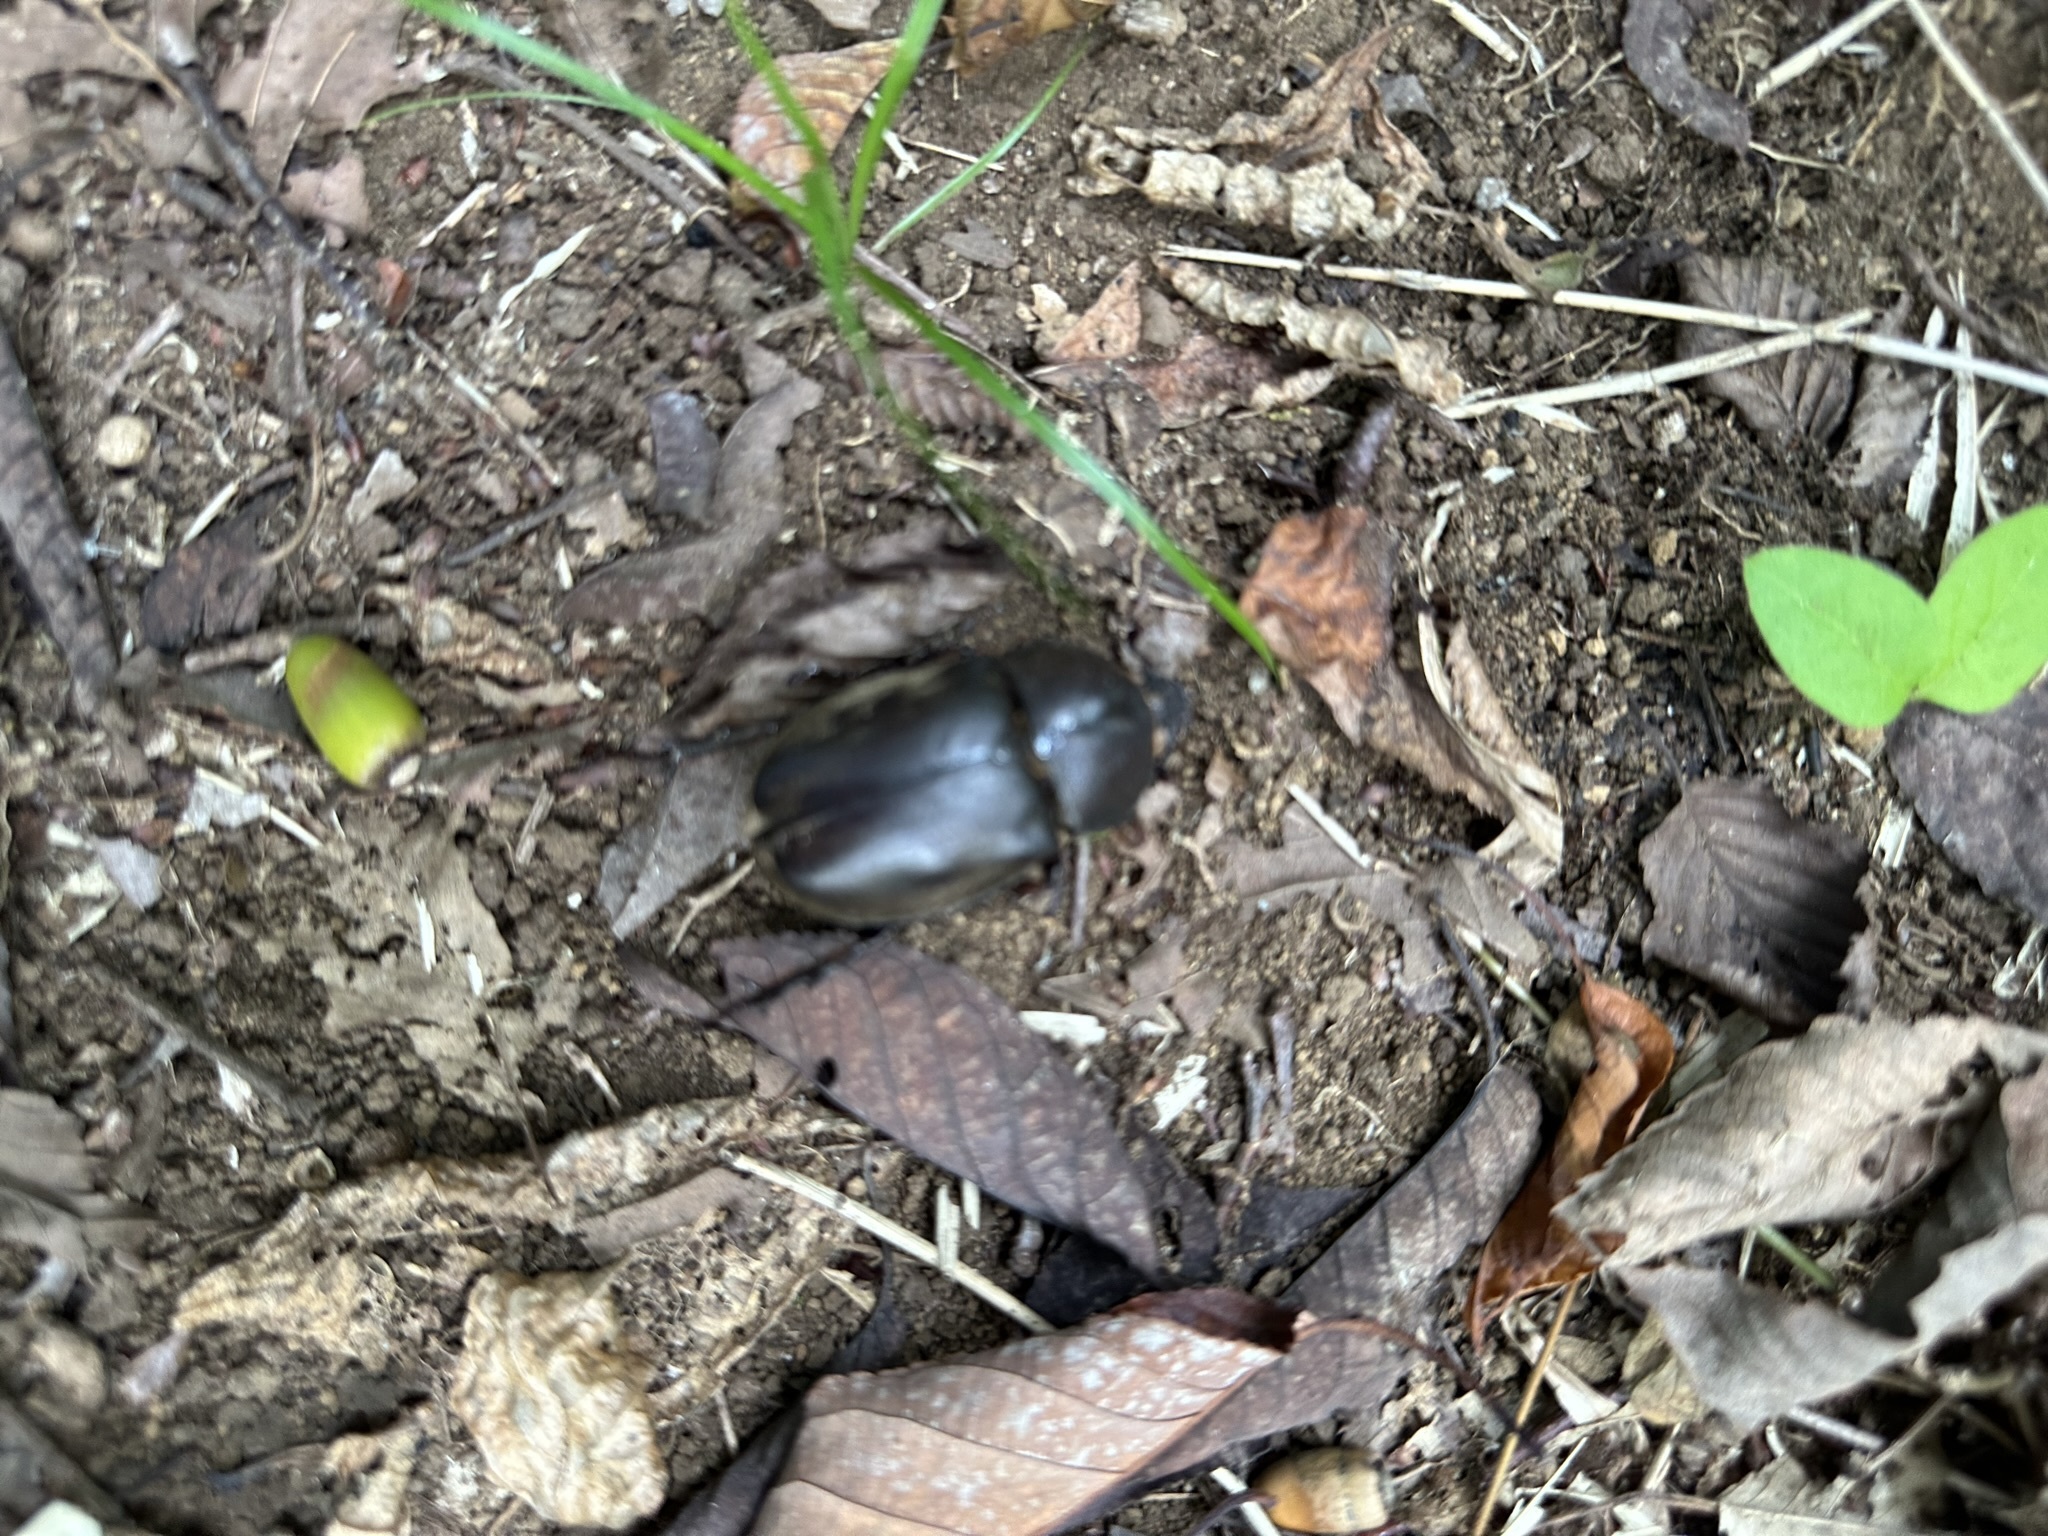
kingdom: Animalia
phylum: Arthropoda
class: Insecta
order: Coleoptera
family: Scarabaeidae
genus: Trypoxylus
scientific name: Trypoxylus dichotomus
